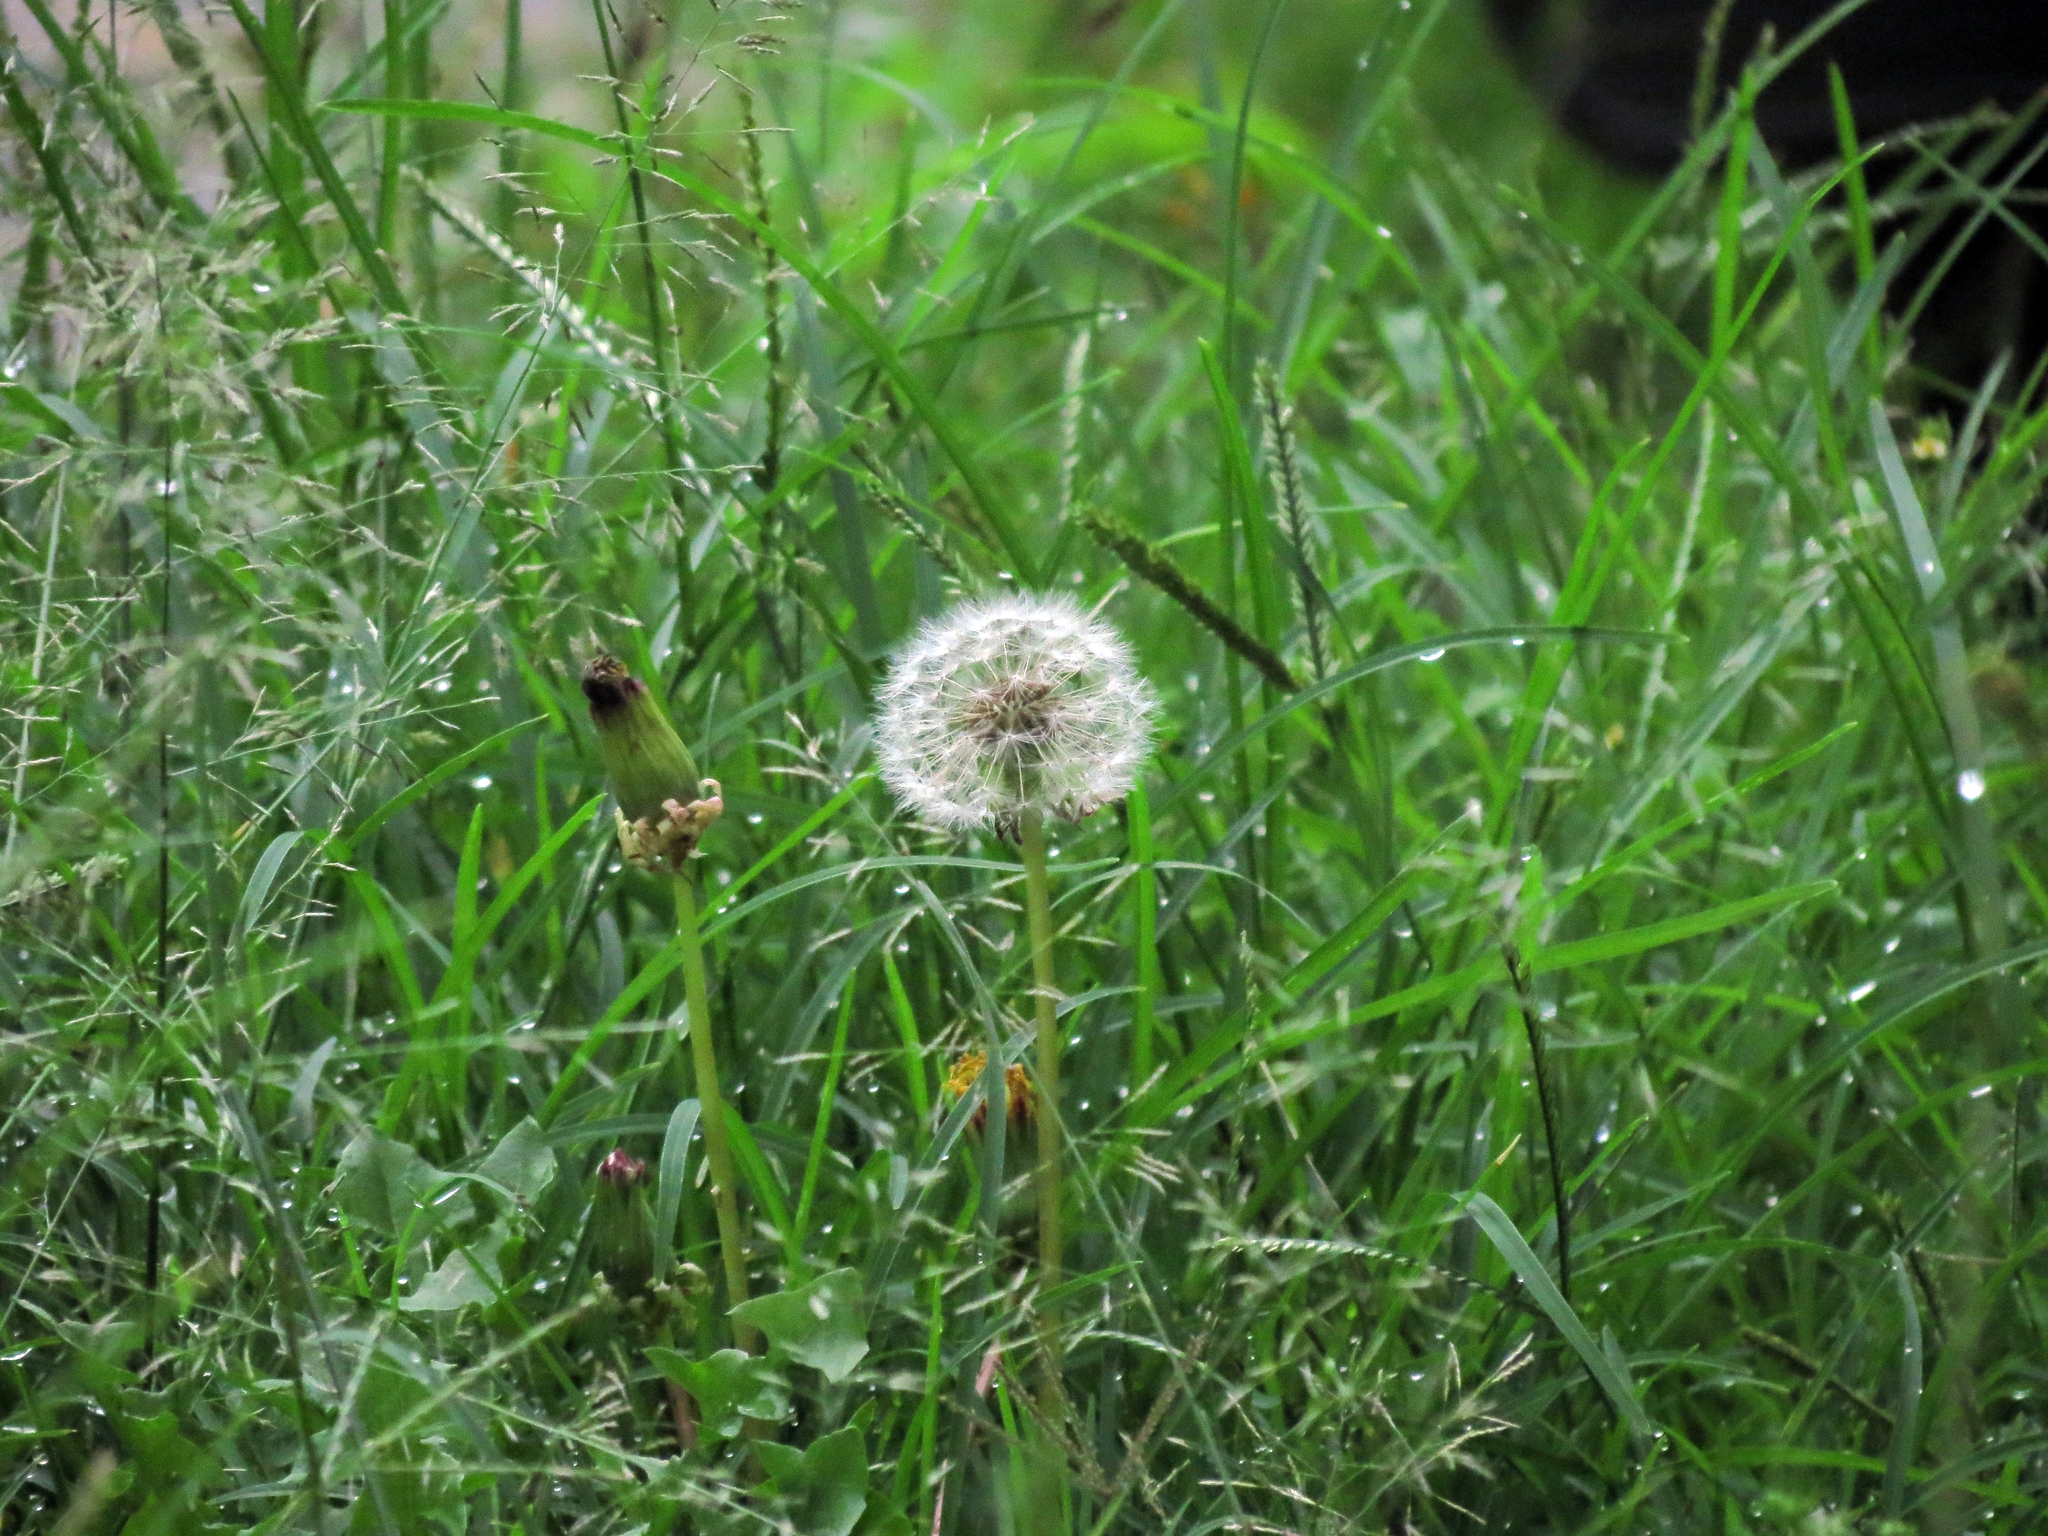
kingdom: Plantae
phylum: Tracheophyta
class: Magnoliopsida
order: Asterales
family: Asteraceae
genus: Taraxacum
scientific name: Taraxacum officinale
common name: Common dandelion
